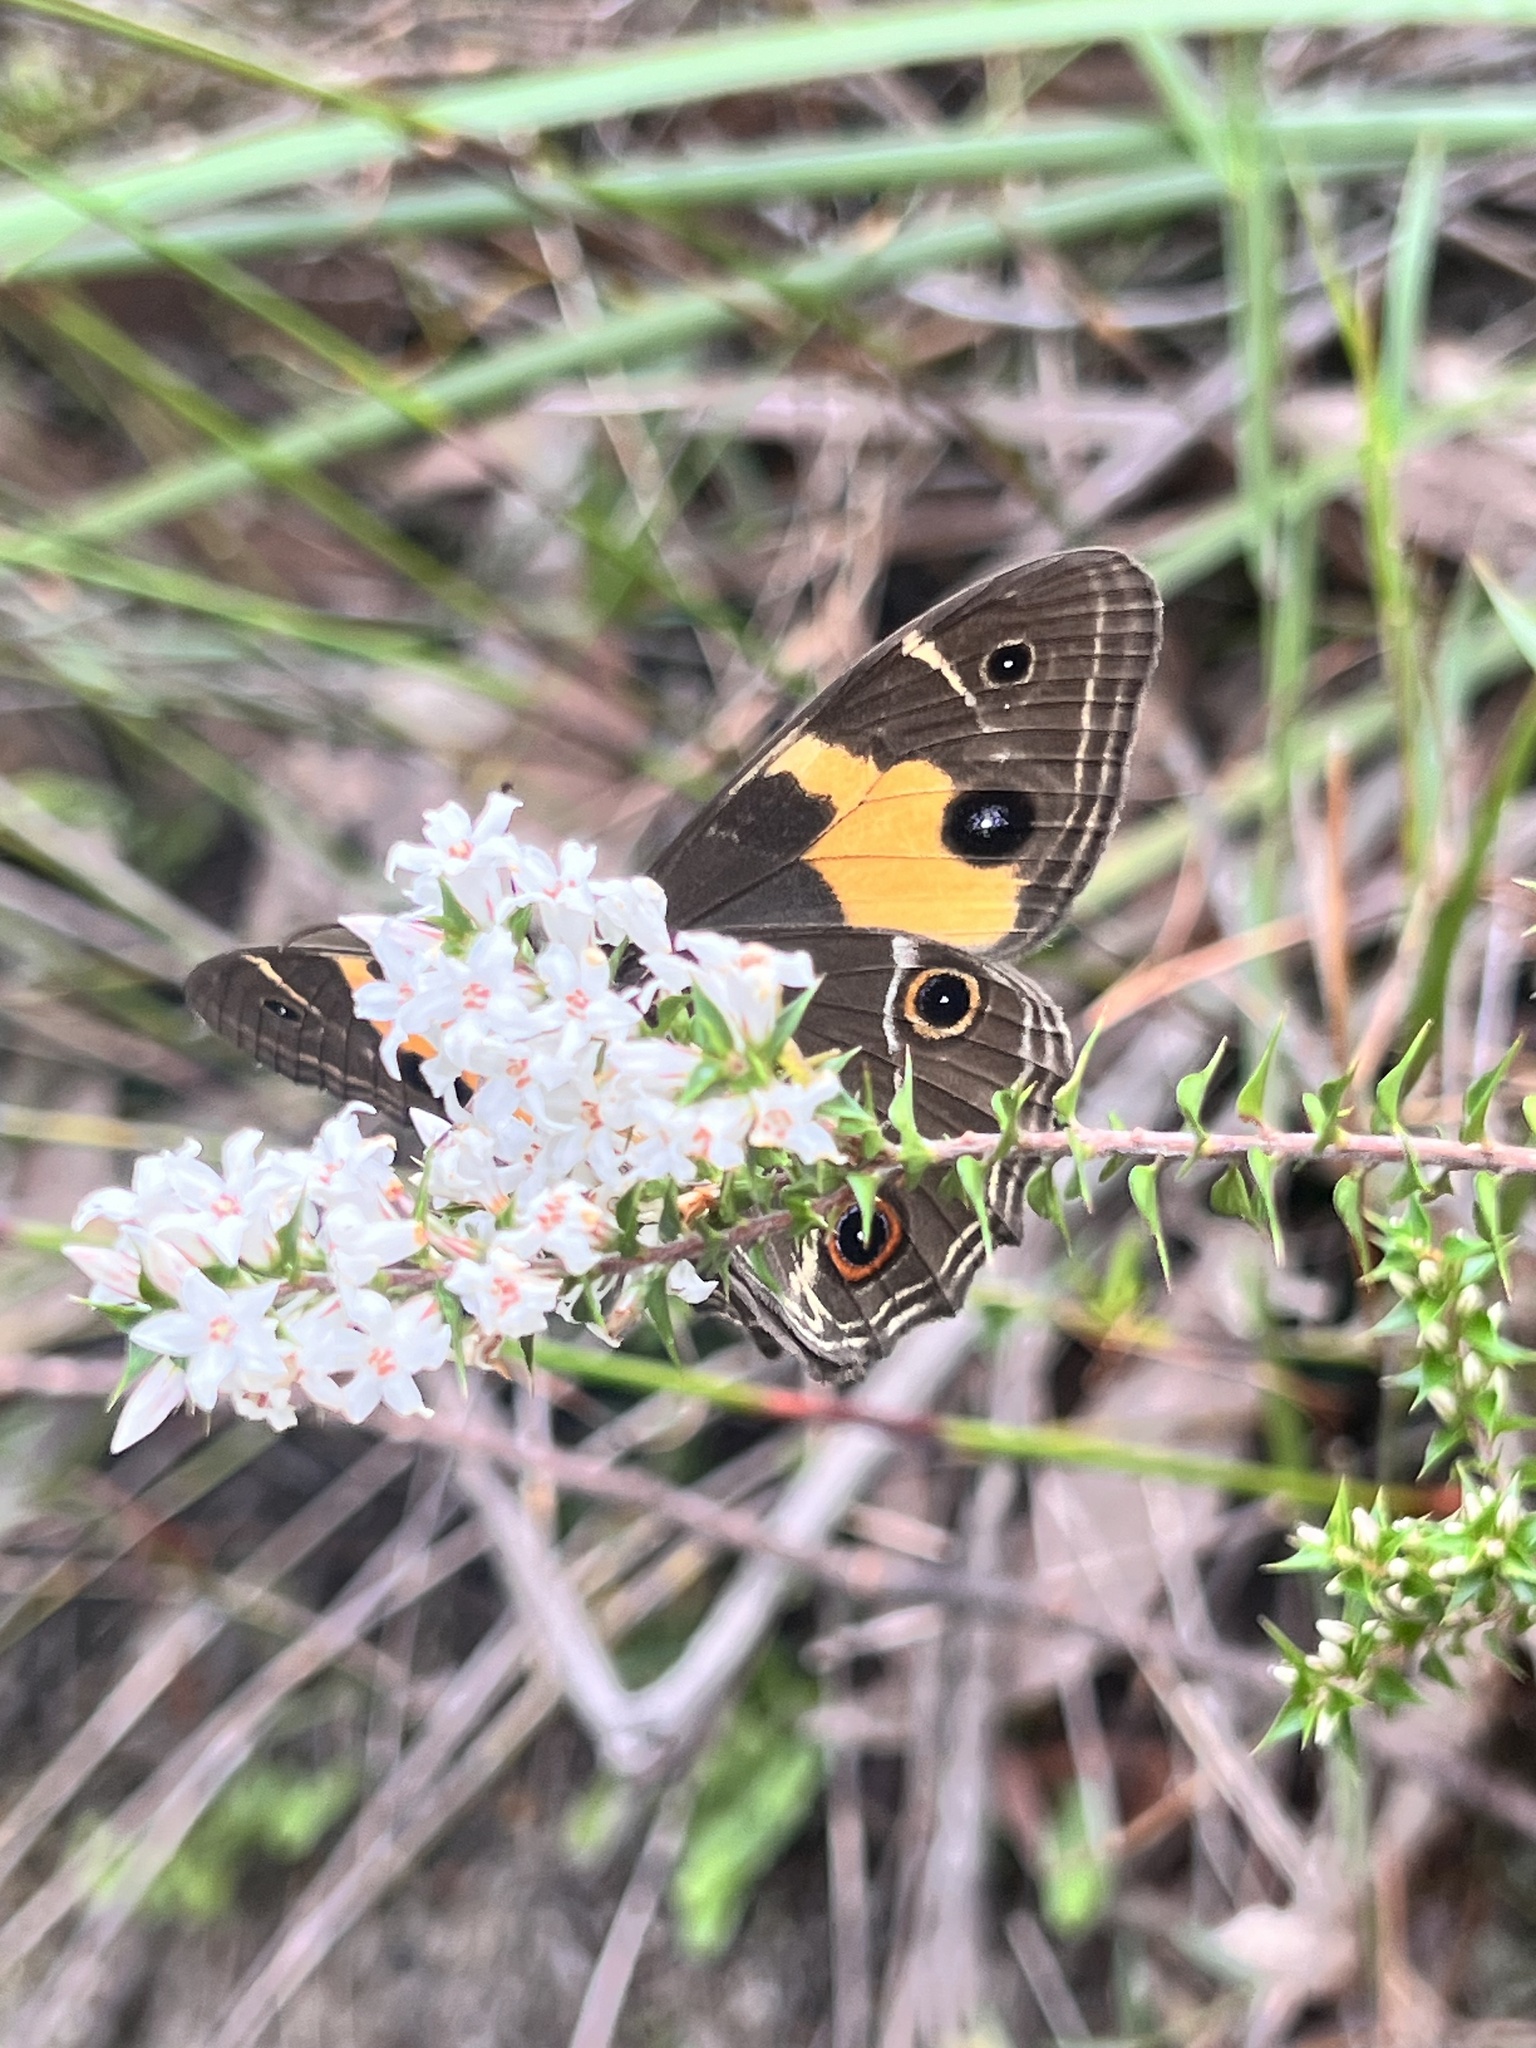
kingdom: Animalia
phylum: Arthropoda
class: Insecta
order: Lepidoptera
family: Nymphalidae
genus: Tisiphone
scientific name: Tisiphone abeona
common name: Swordgrass brown
